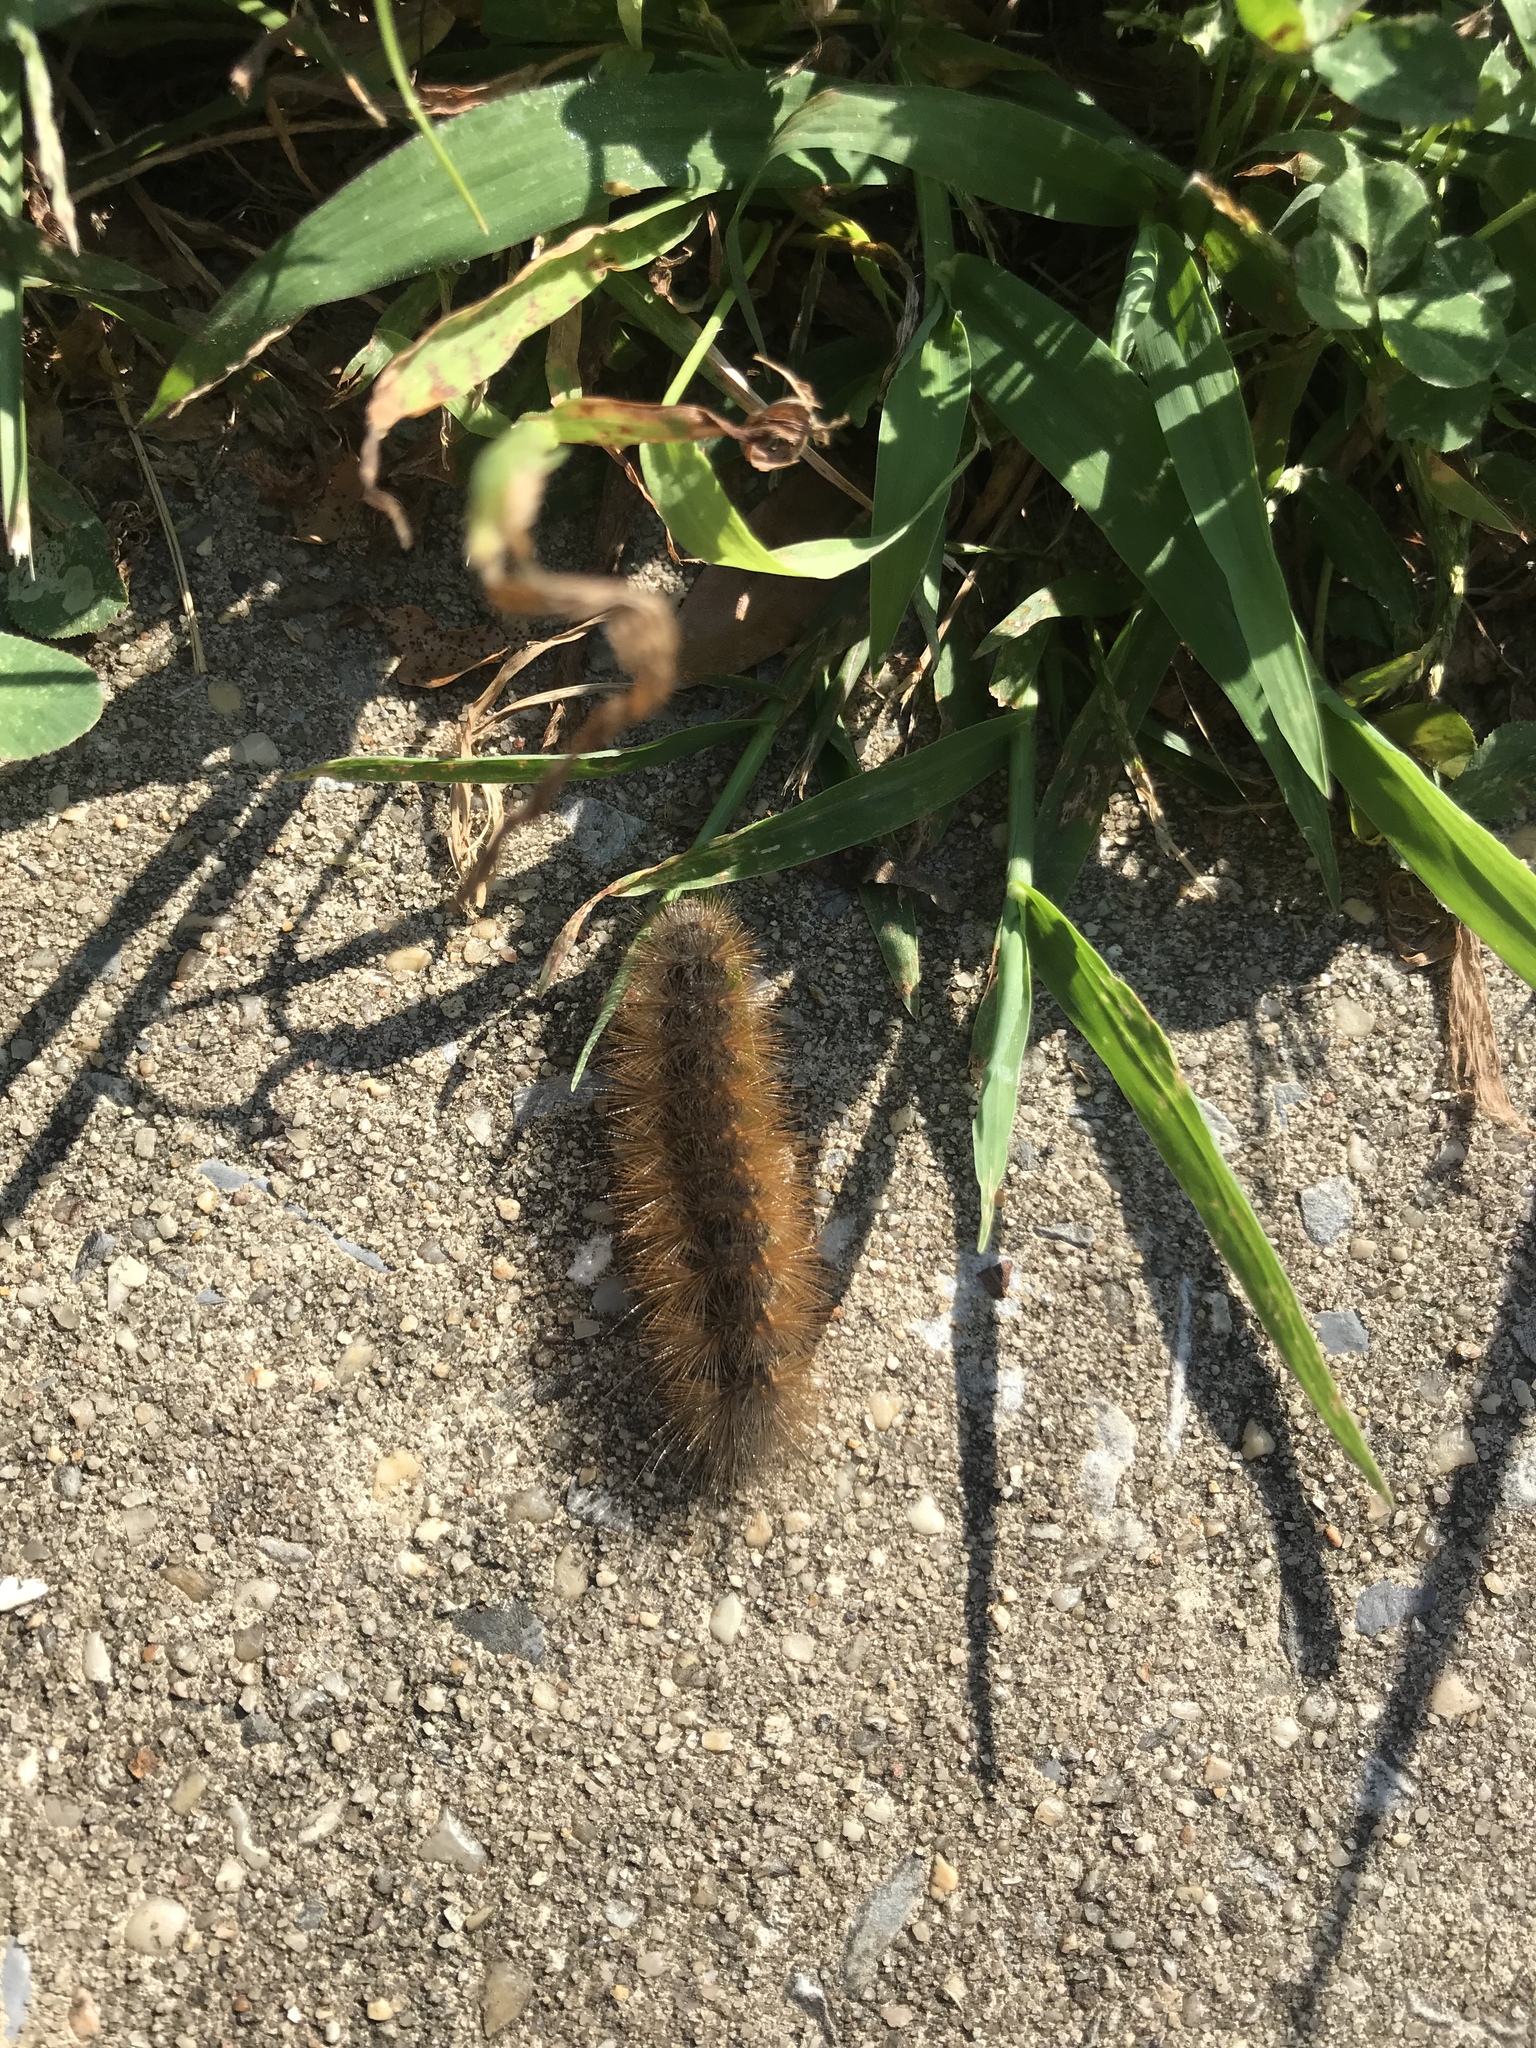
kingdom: Animalia
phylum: Arthropoda
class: Insecta
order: Lepidoptera
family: Erebidae
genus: Estigmene
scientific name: Estigmene acrea
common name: Salt marsh moth
